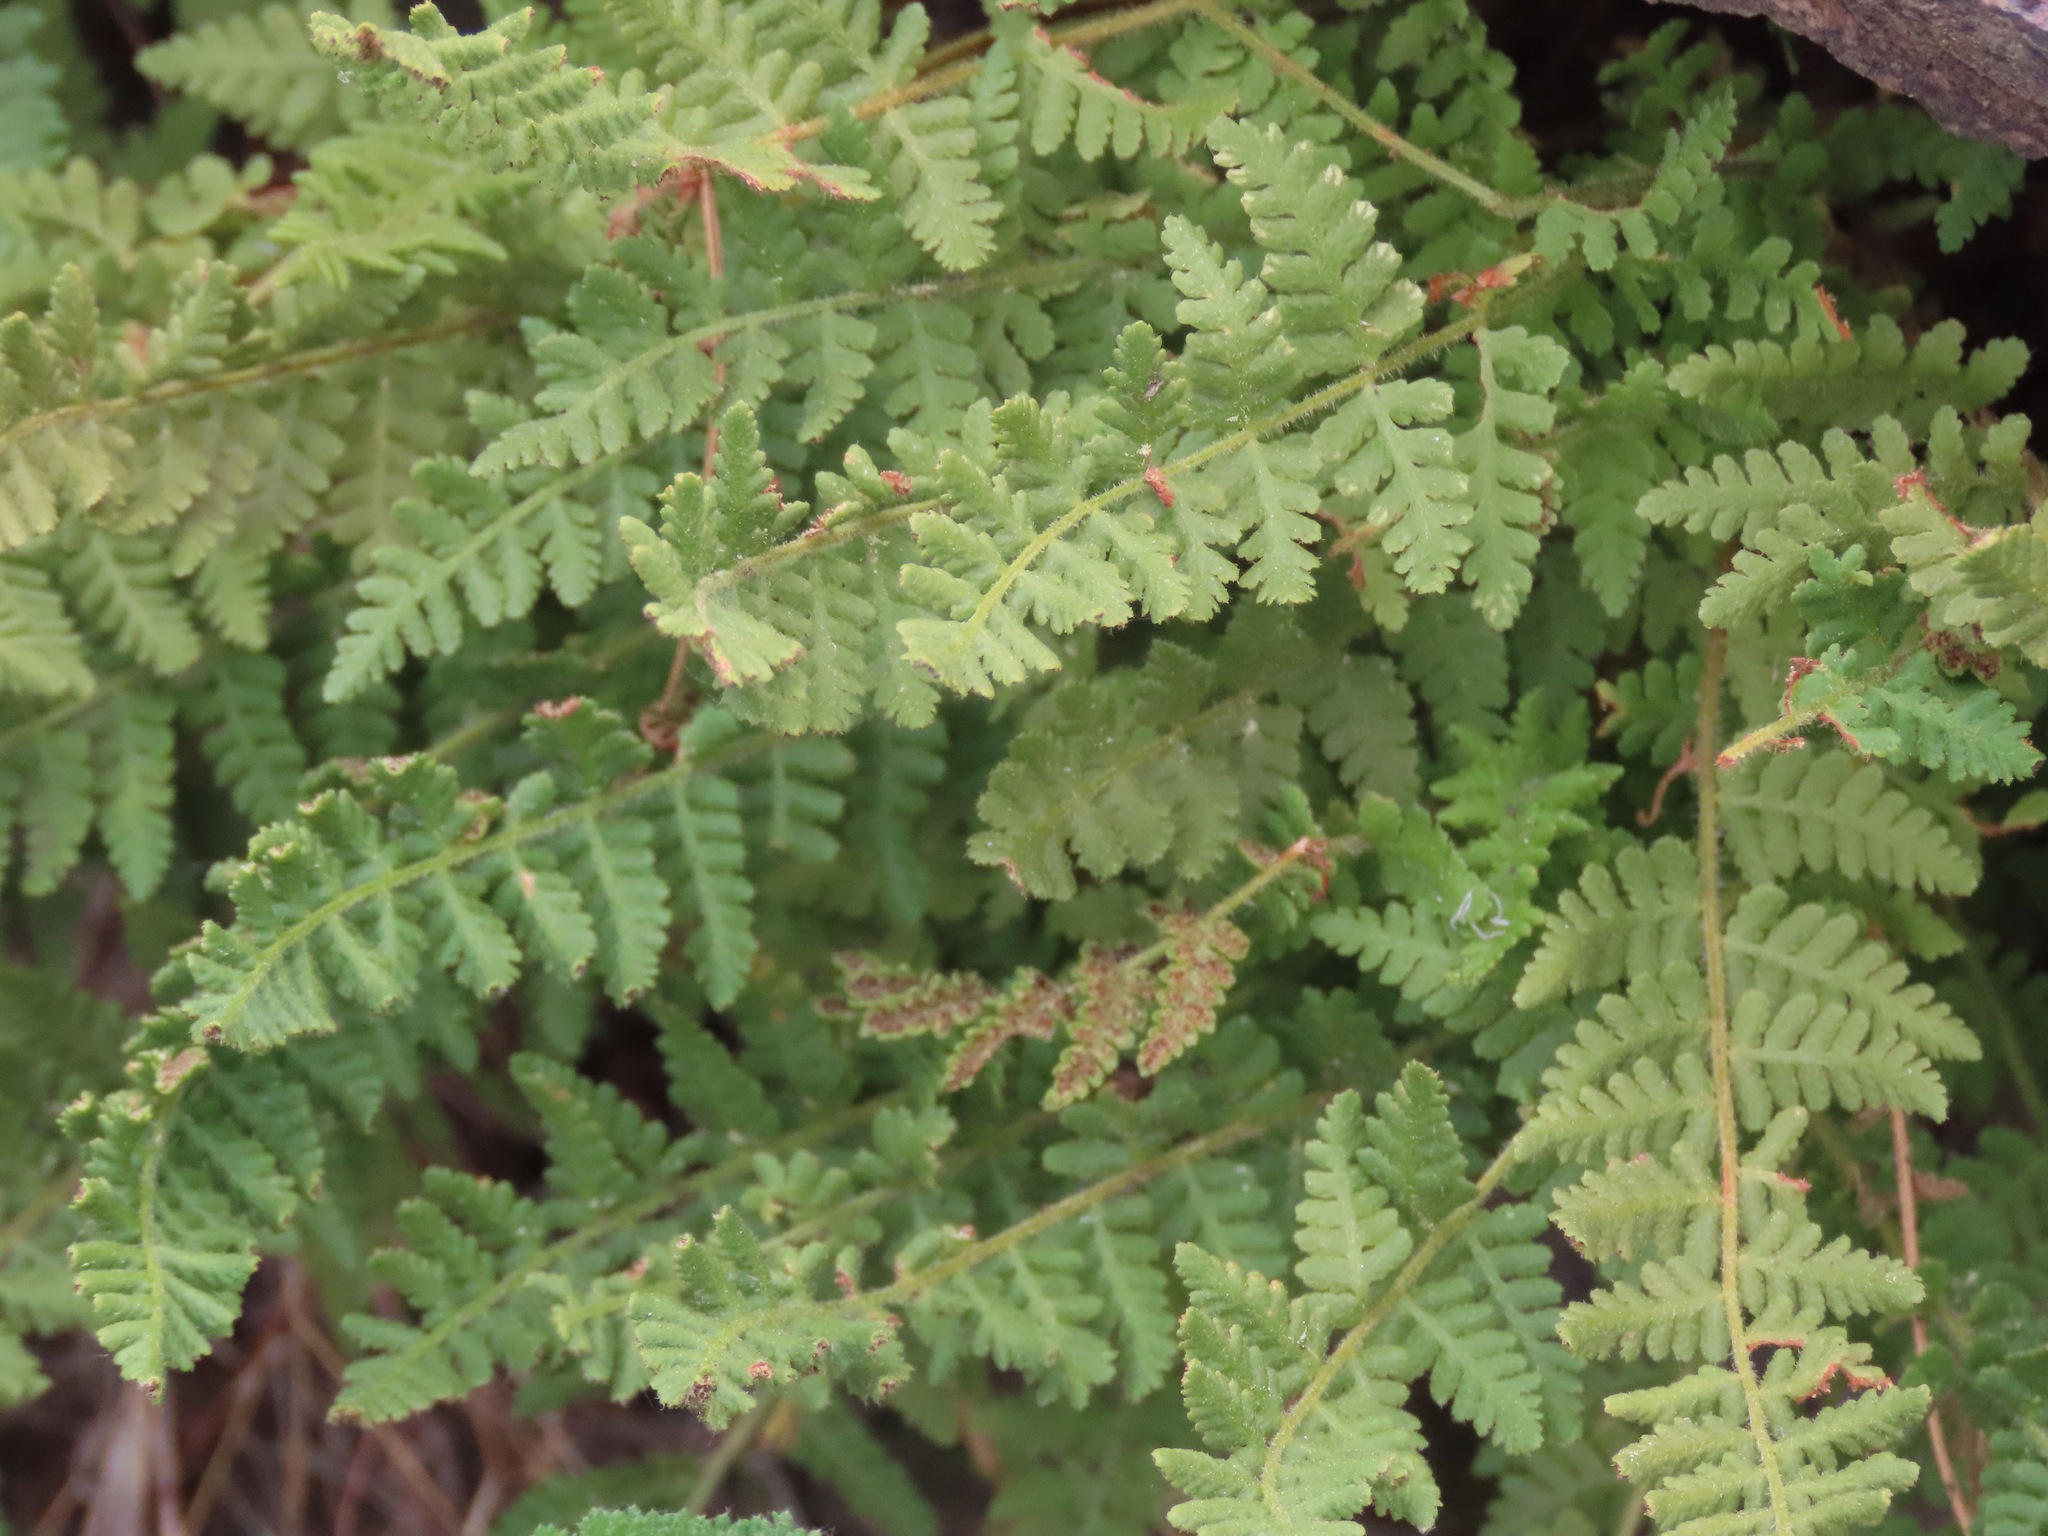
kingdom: Plantae
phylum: Tracheophyta
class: Polypodiopsida
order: Polypodiales
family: Woodsiaceae
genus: Physematium
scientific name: Physematium scopulinum
